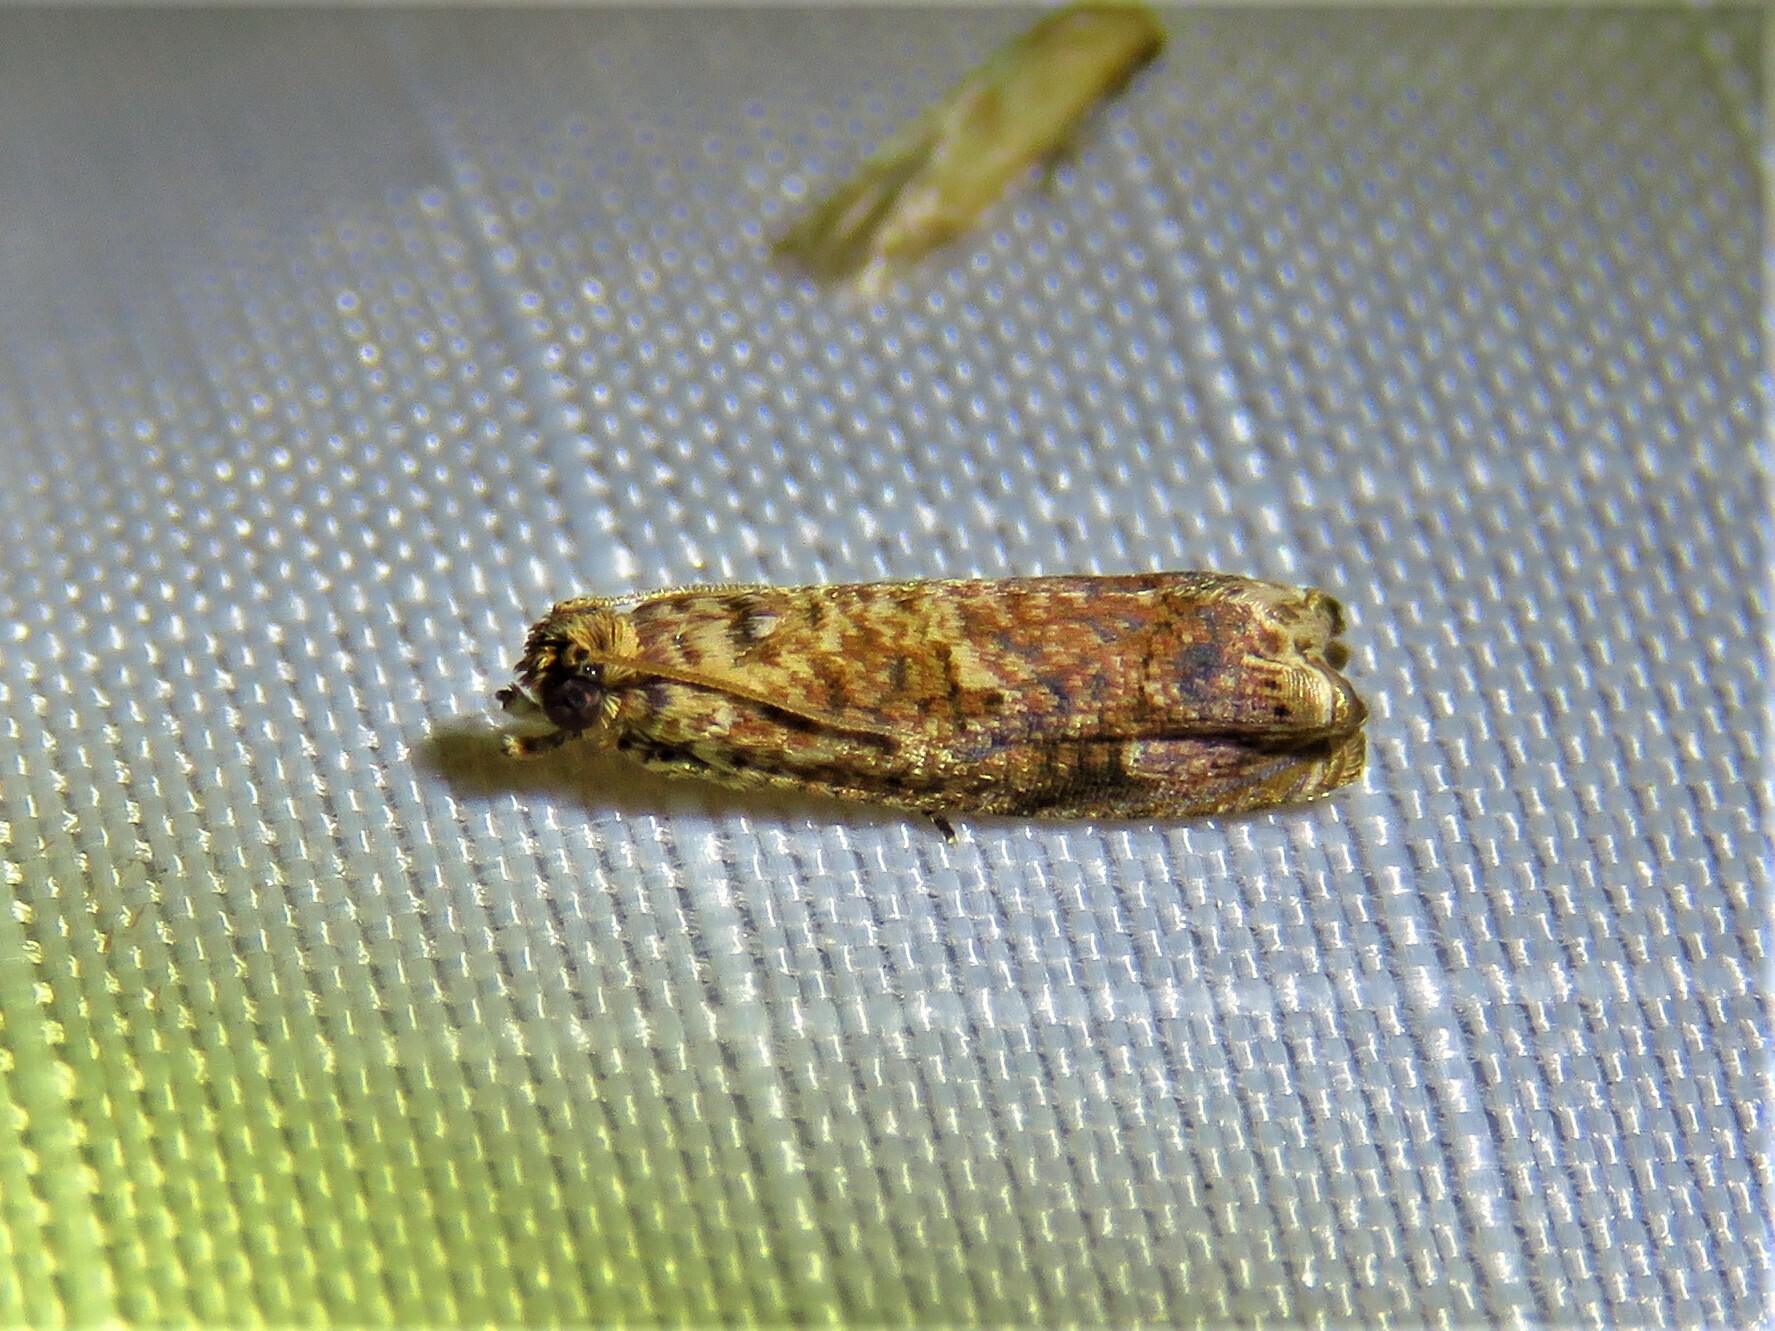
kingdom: Animalia
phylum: Arthropoda
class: Insecta
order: Lepidoptera
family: Tortricidae
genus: Episimus
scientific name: Episimus argutana
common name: Sumac leaftier moth
